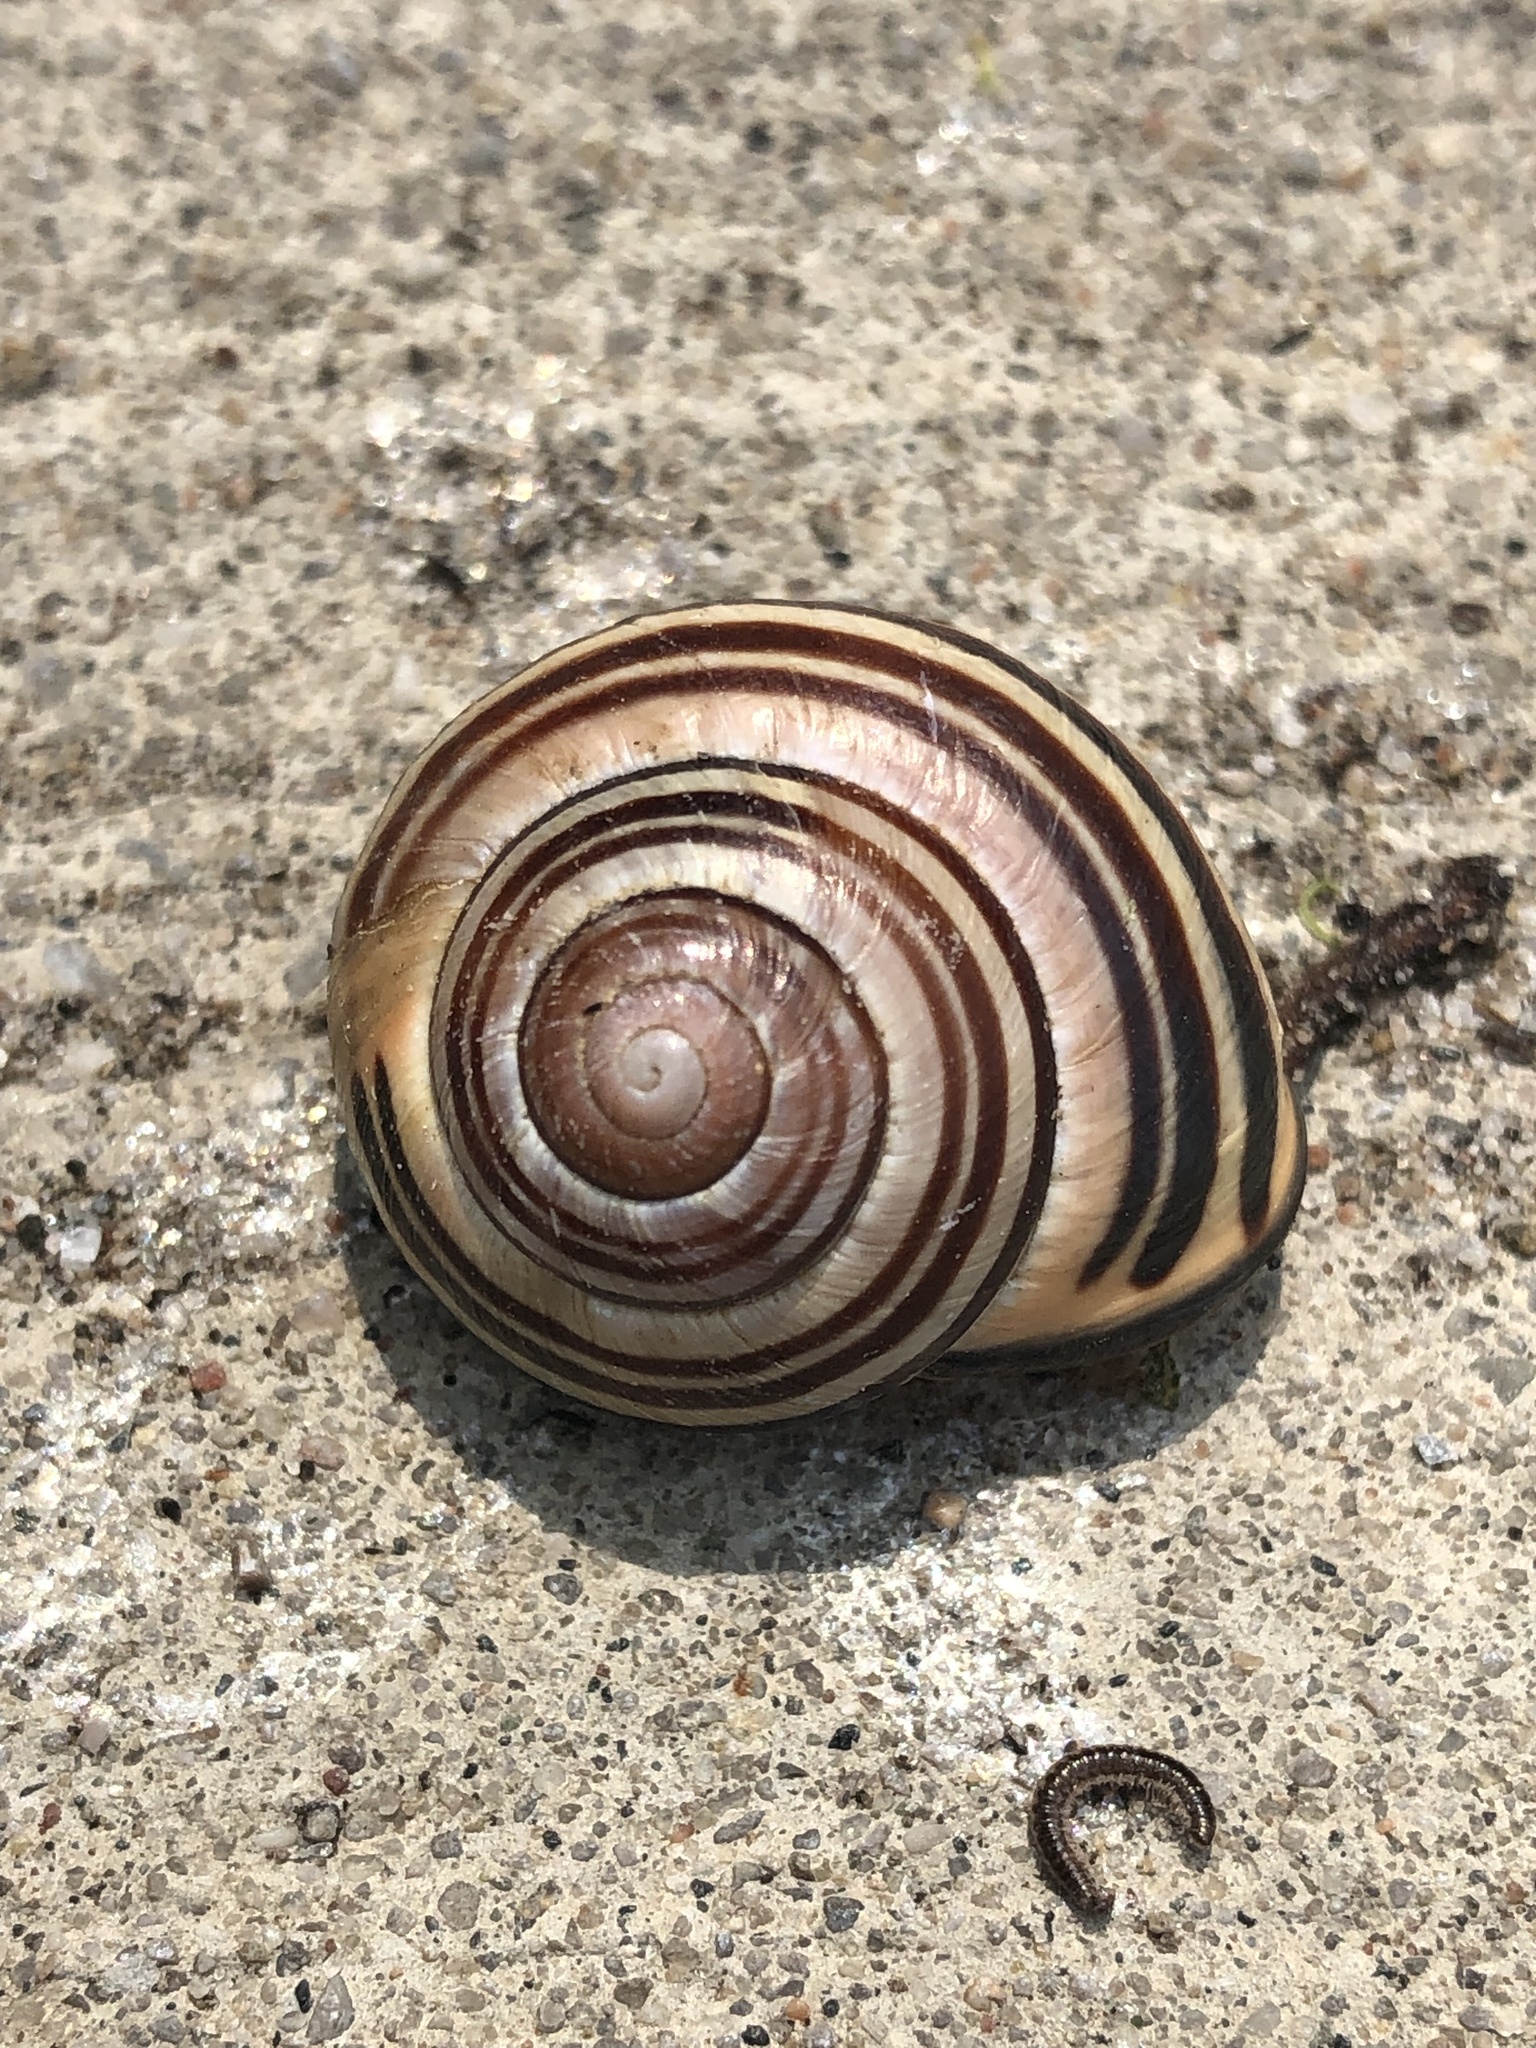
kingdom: Animalia
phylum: Mollusca
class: Gastropoda
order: Stylommatophora
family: Helicidae
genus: Cepaea
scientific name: Cepaea nemoralis
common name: Grovesnail
